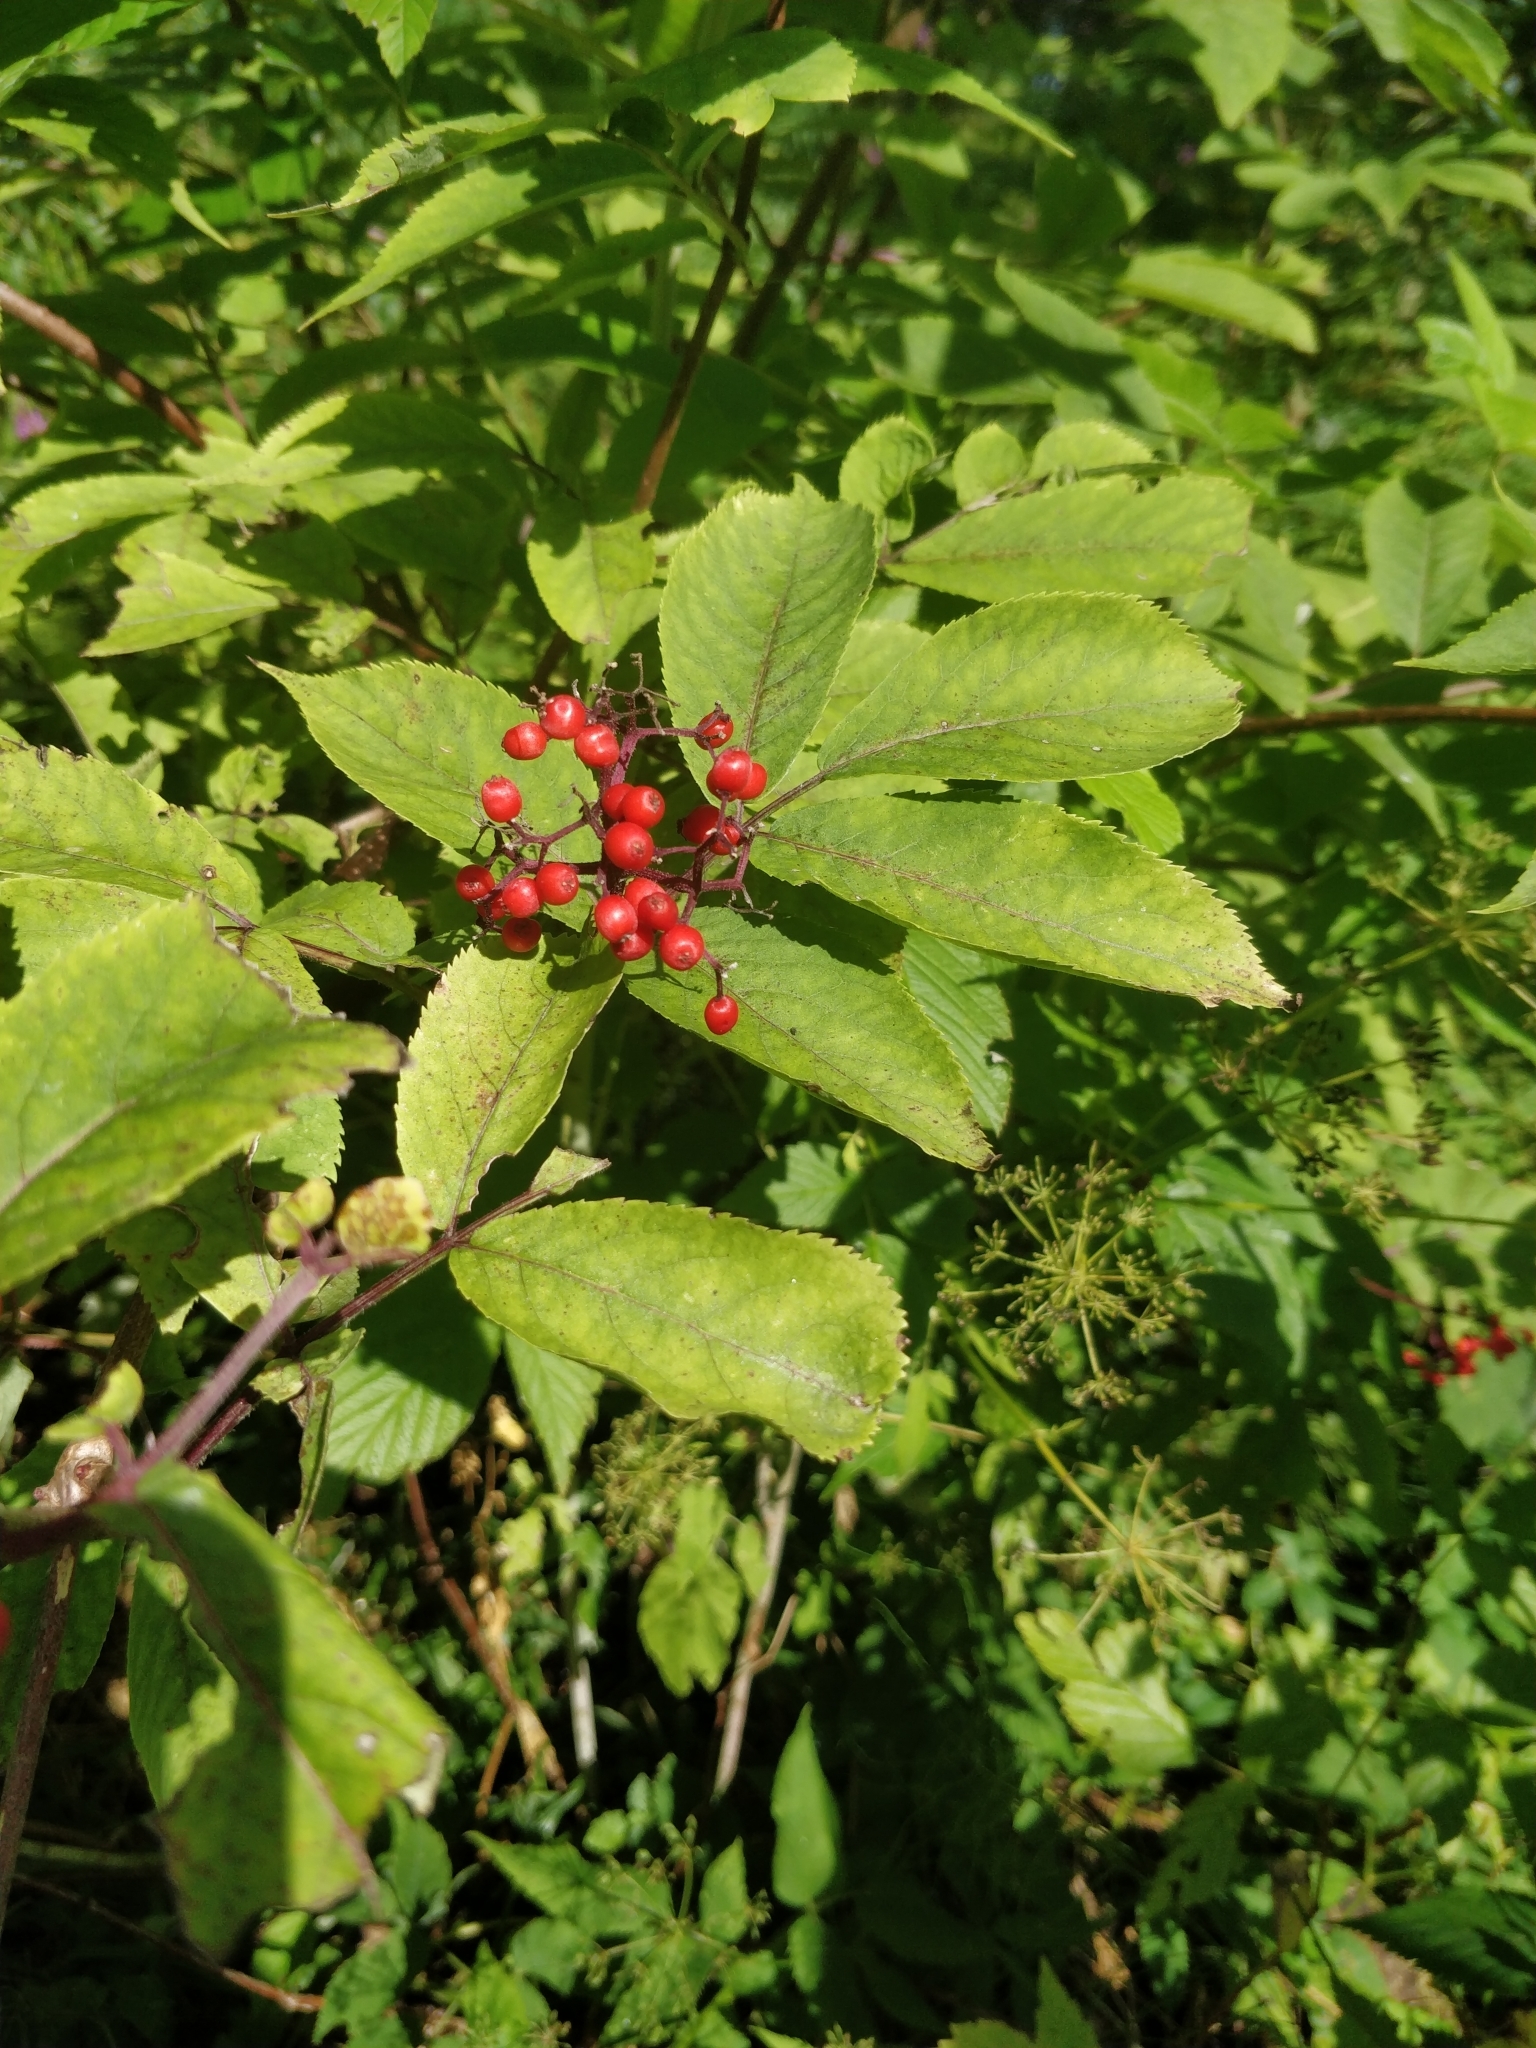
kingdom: Plantae
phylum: Tracheophyta
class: Magnoliopsida
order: Dipsacales
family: Viburnaceae
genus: Sambucus
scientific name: Sambucus racemosa
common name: Red-berried elder
